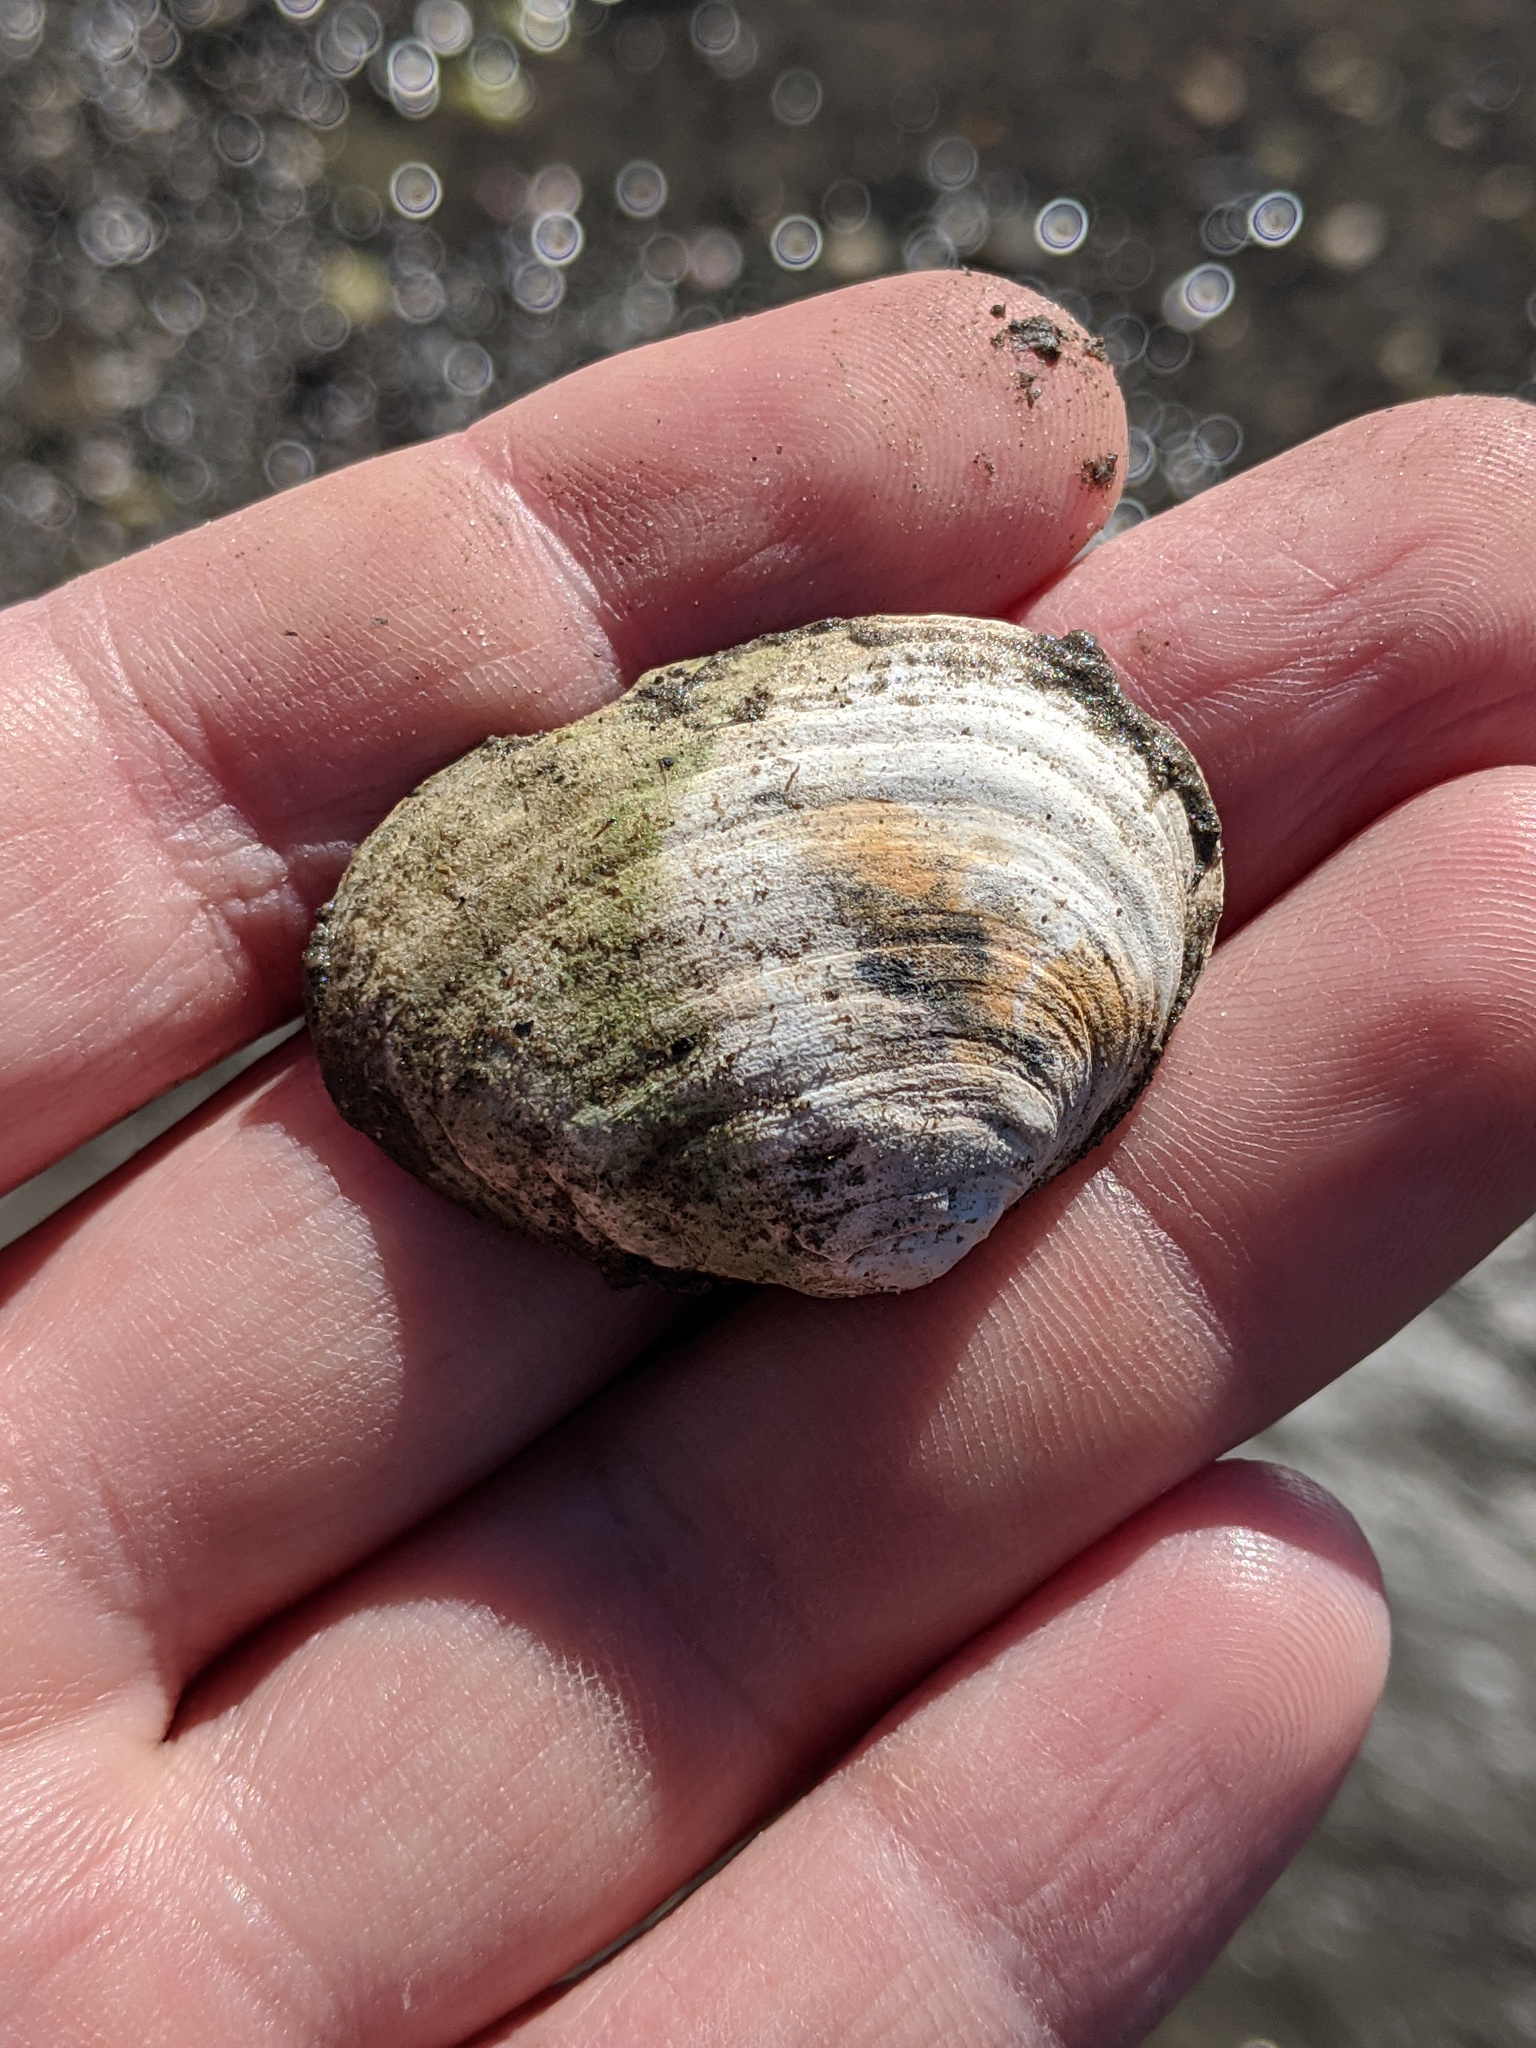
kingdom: Animalia
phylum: Mollusca
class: Bivalvia
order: Myida
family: Myidae
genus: Mya
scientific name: Mya arenaria
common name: Soft-shelled clam
